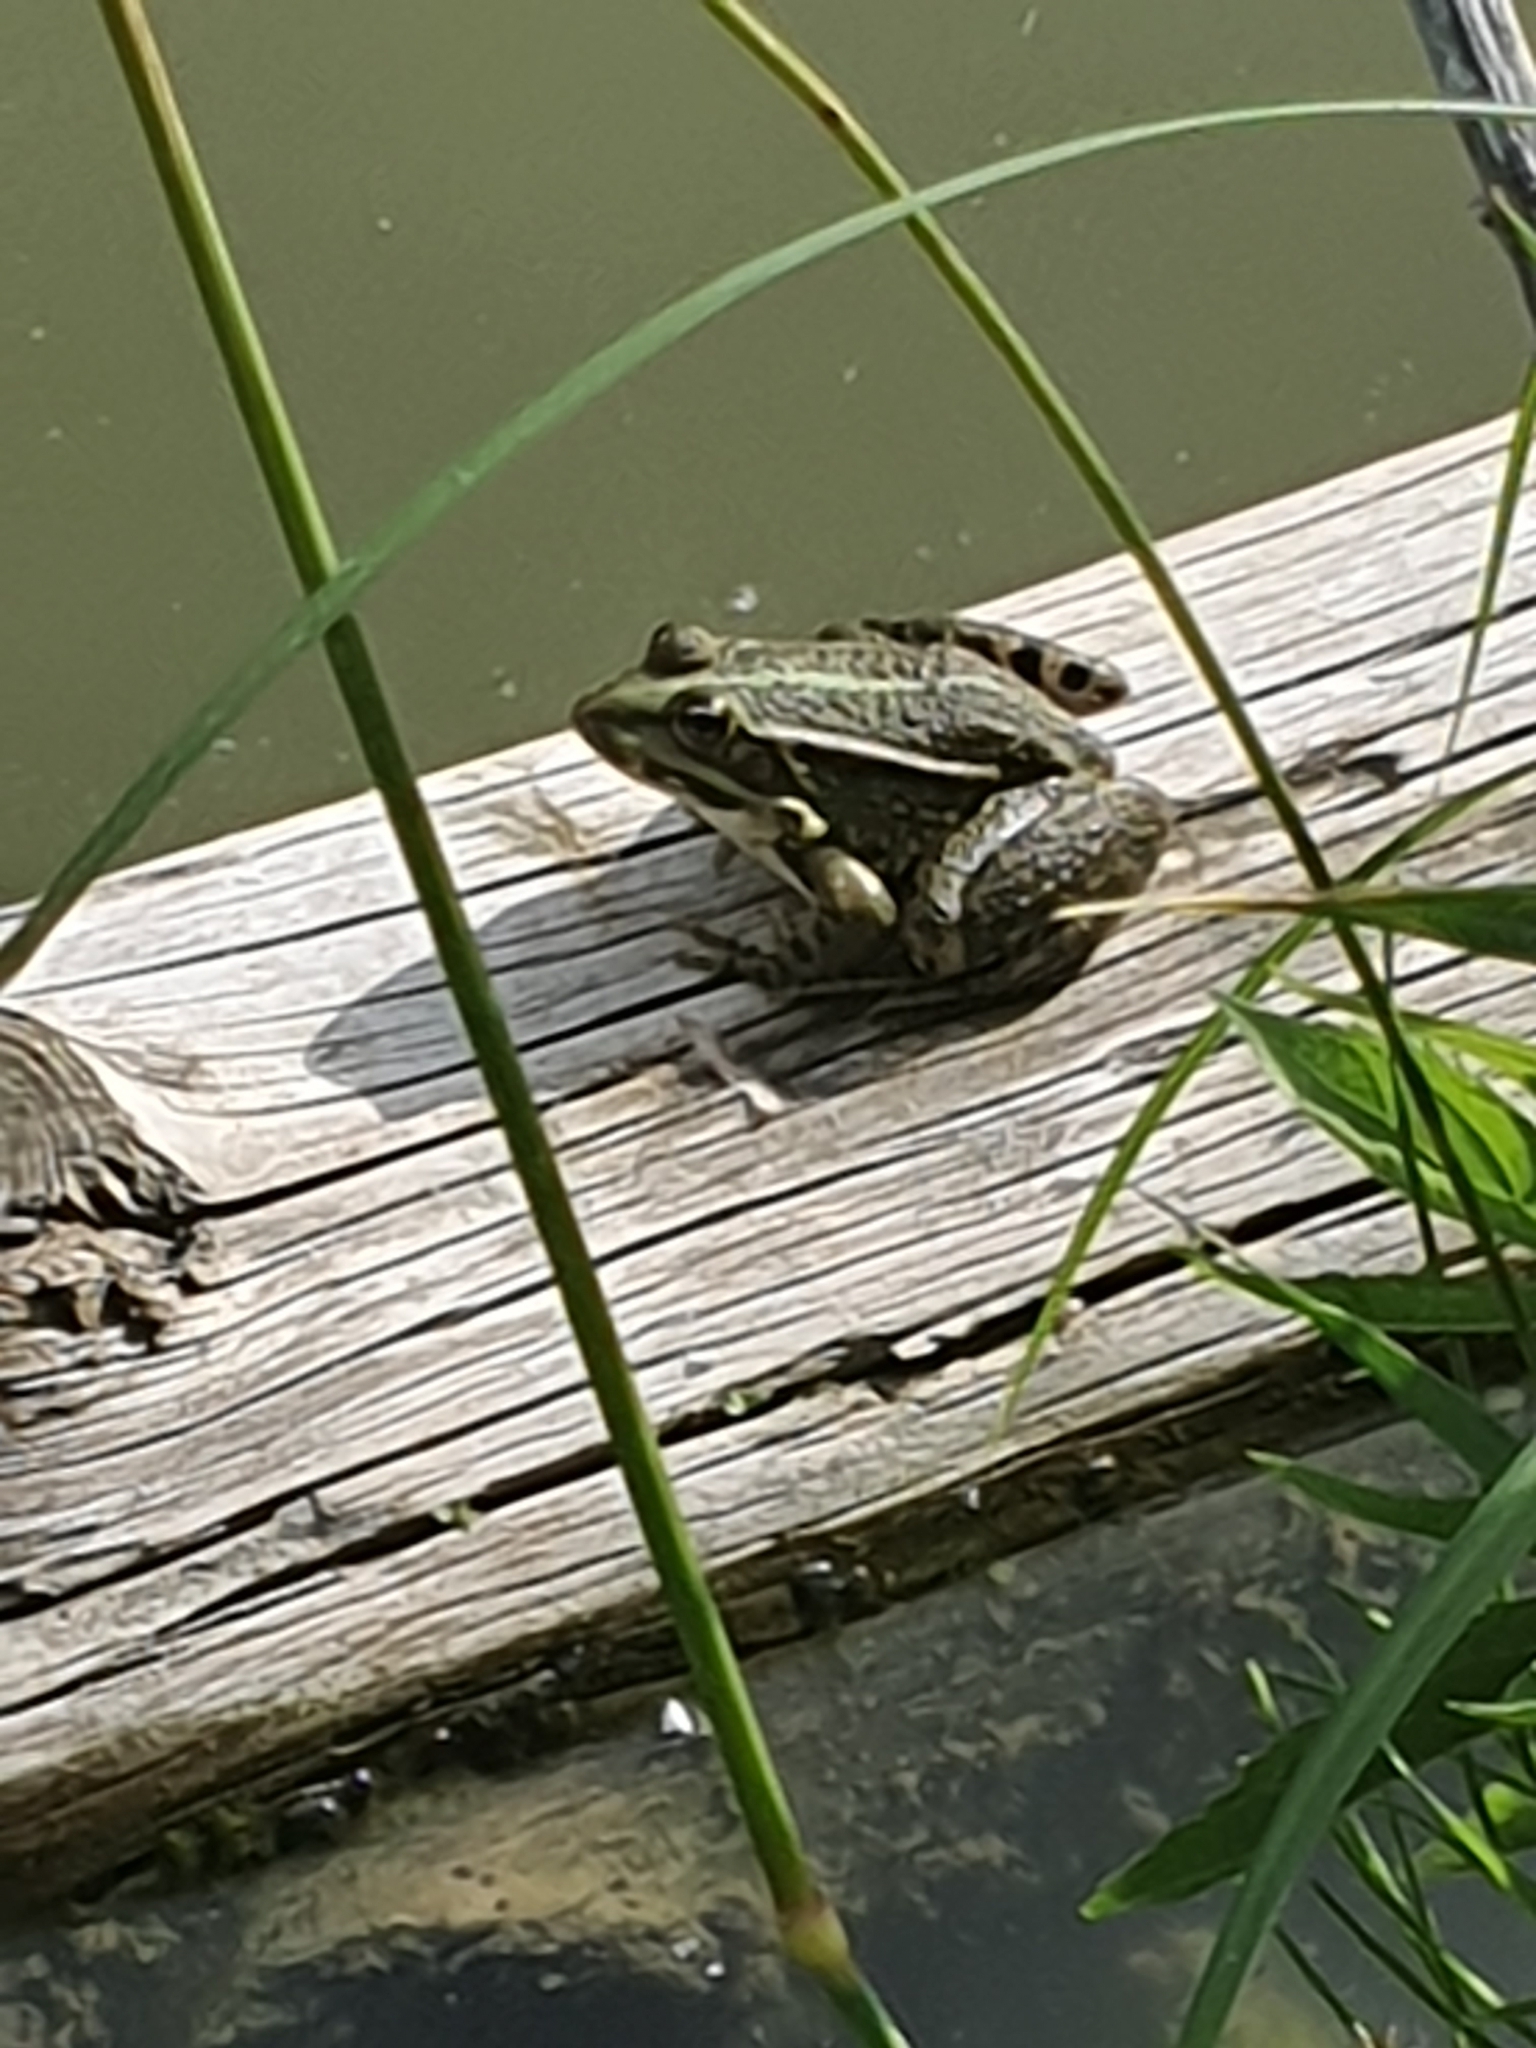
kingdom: Animalia
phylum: Chordata
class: Amphibia
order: Anura
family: Ranidae
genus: Pelophylax
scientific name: Pelophylax
